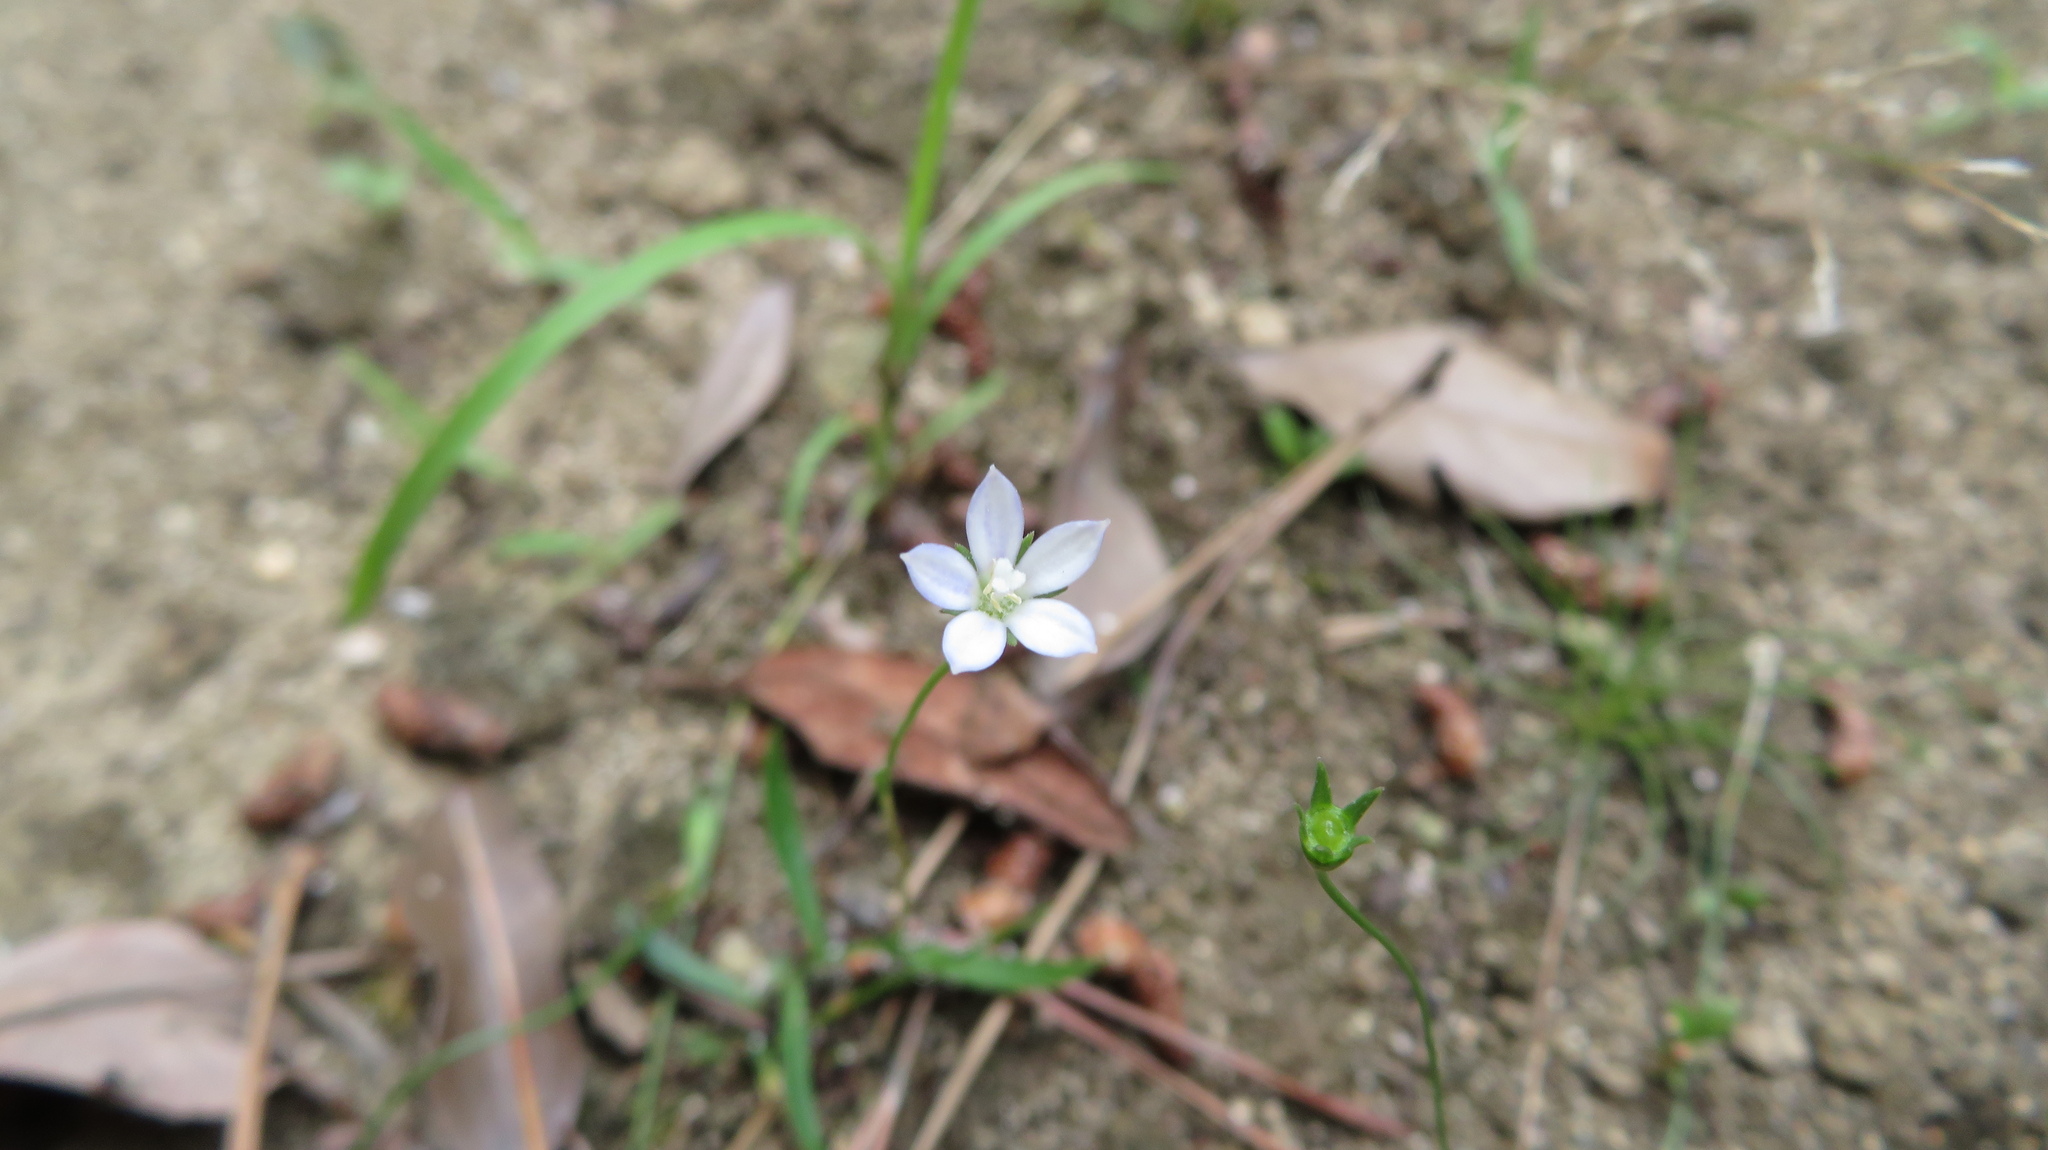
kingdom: Plantae
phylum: Tracheophyta
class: Magnoliopsida
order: Asterales
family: Campanulaceae
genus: Wahlenbergia
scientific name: Wahlenbergia marginata
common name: Southern rockbell
